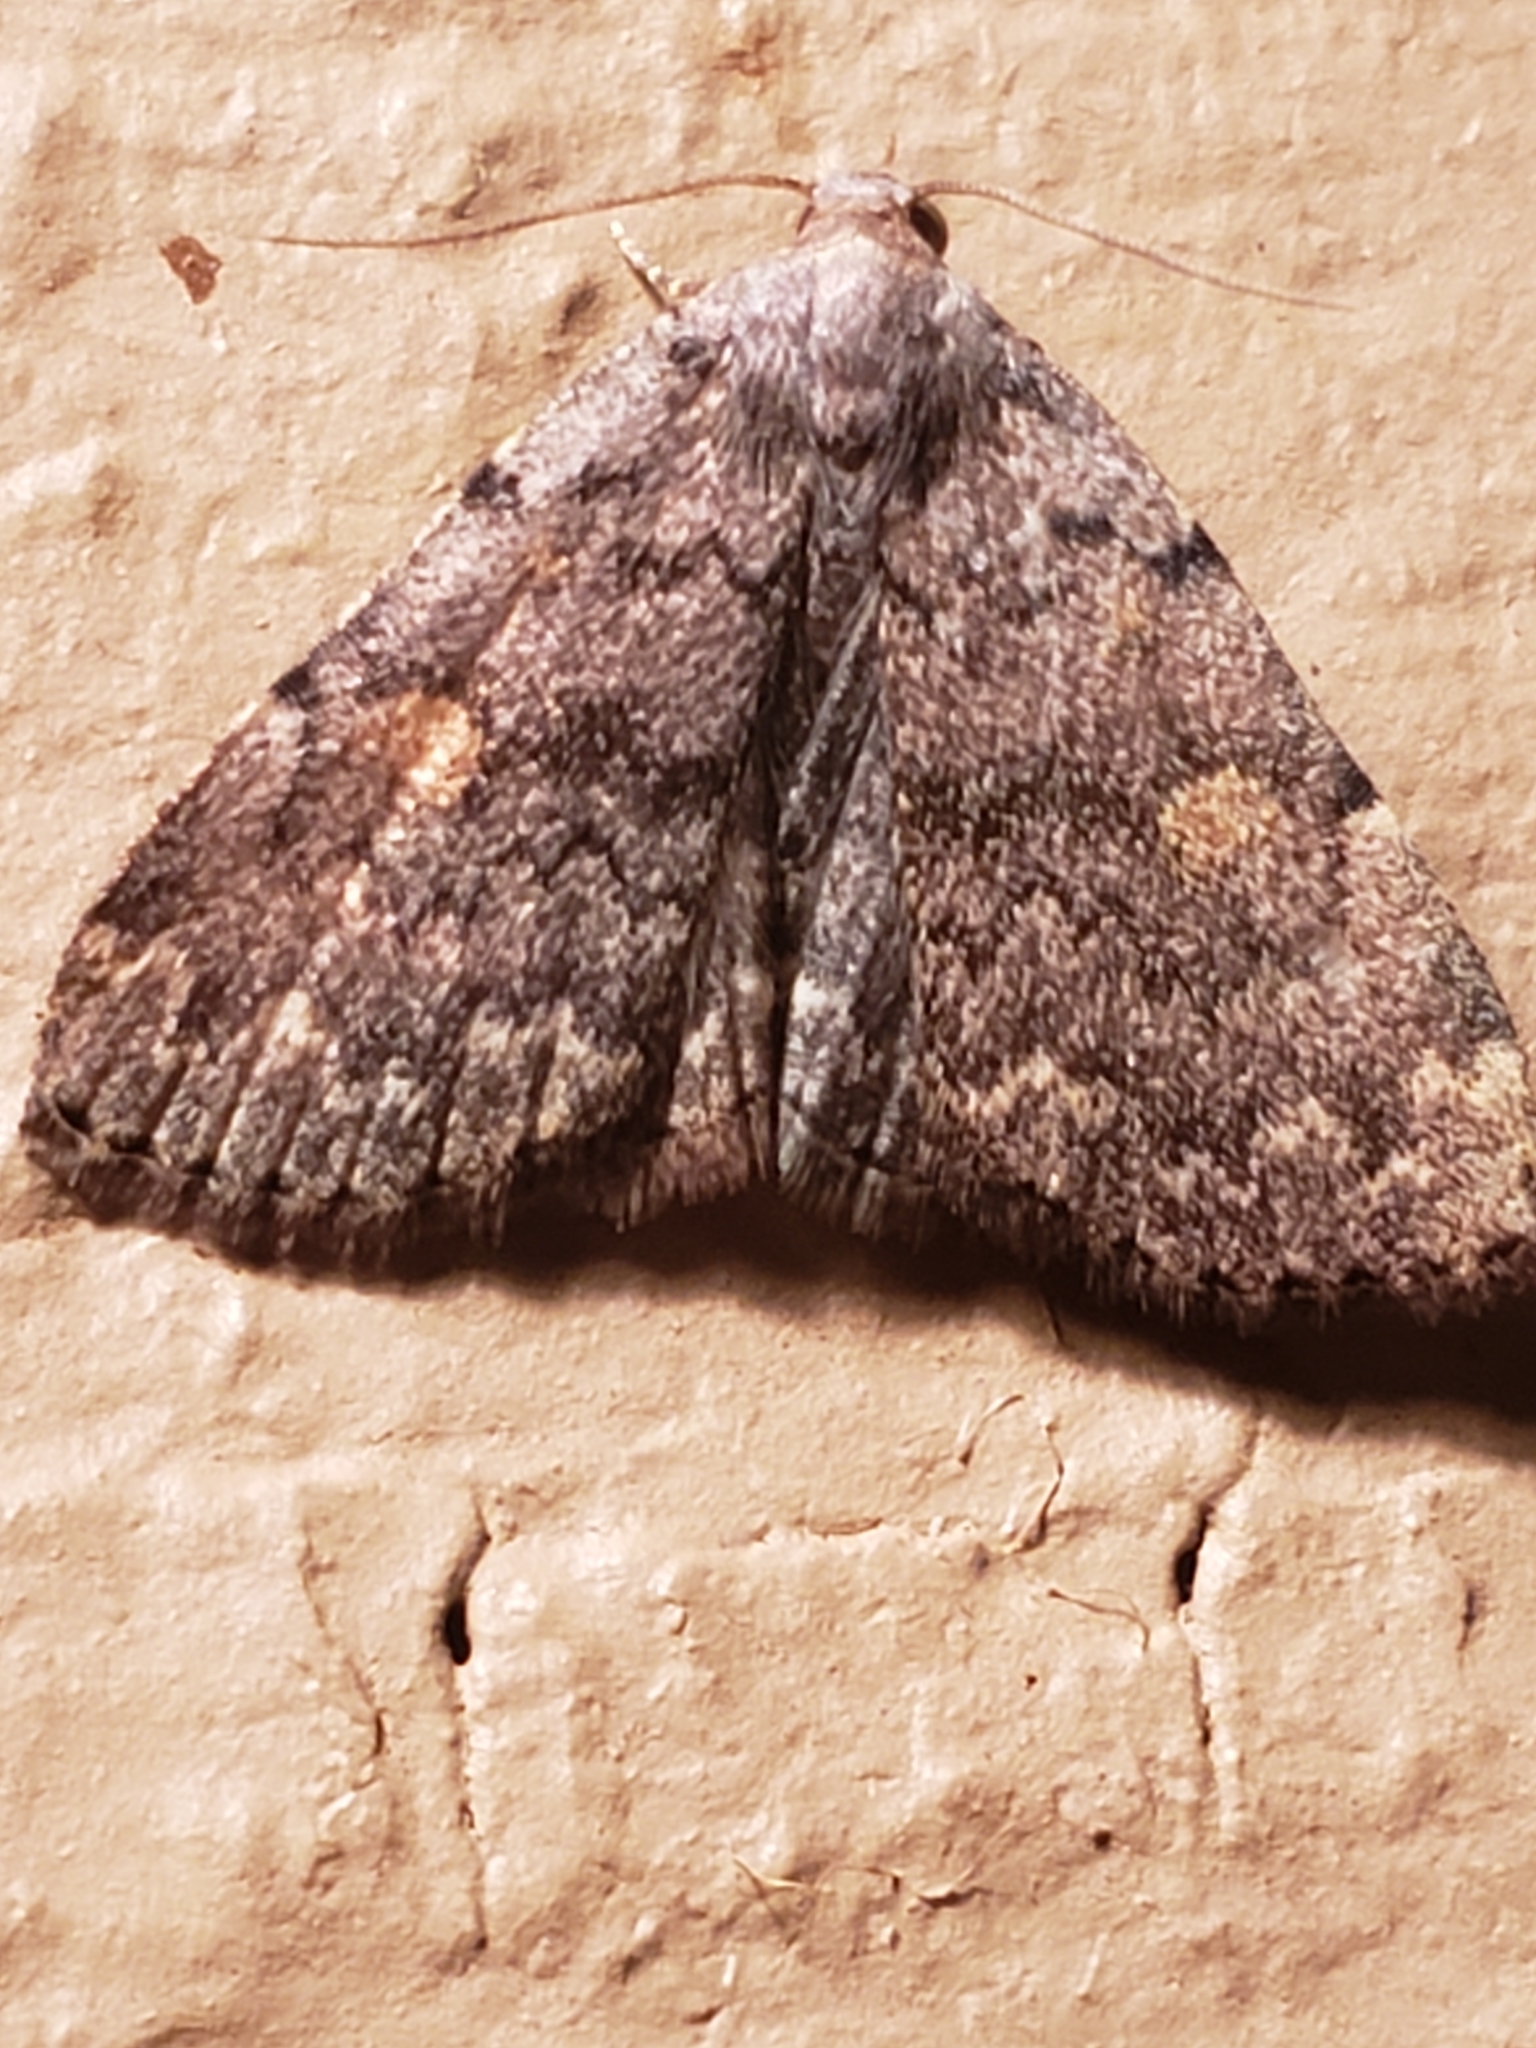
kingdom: Animalia
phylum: Arthropoda
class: Insecta
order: Lepidoptera
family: Erebidae
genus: Idia
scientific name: Idia aemula
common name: Common idia moth
